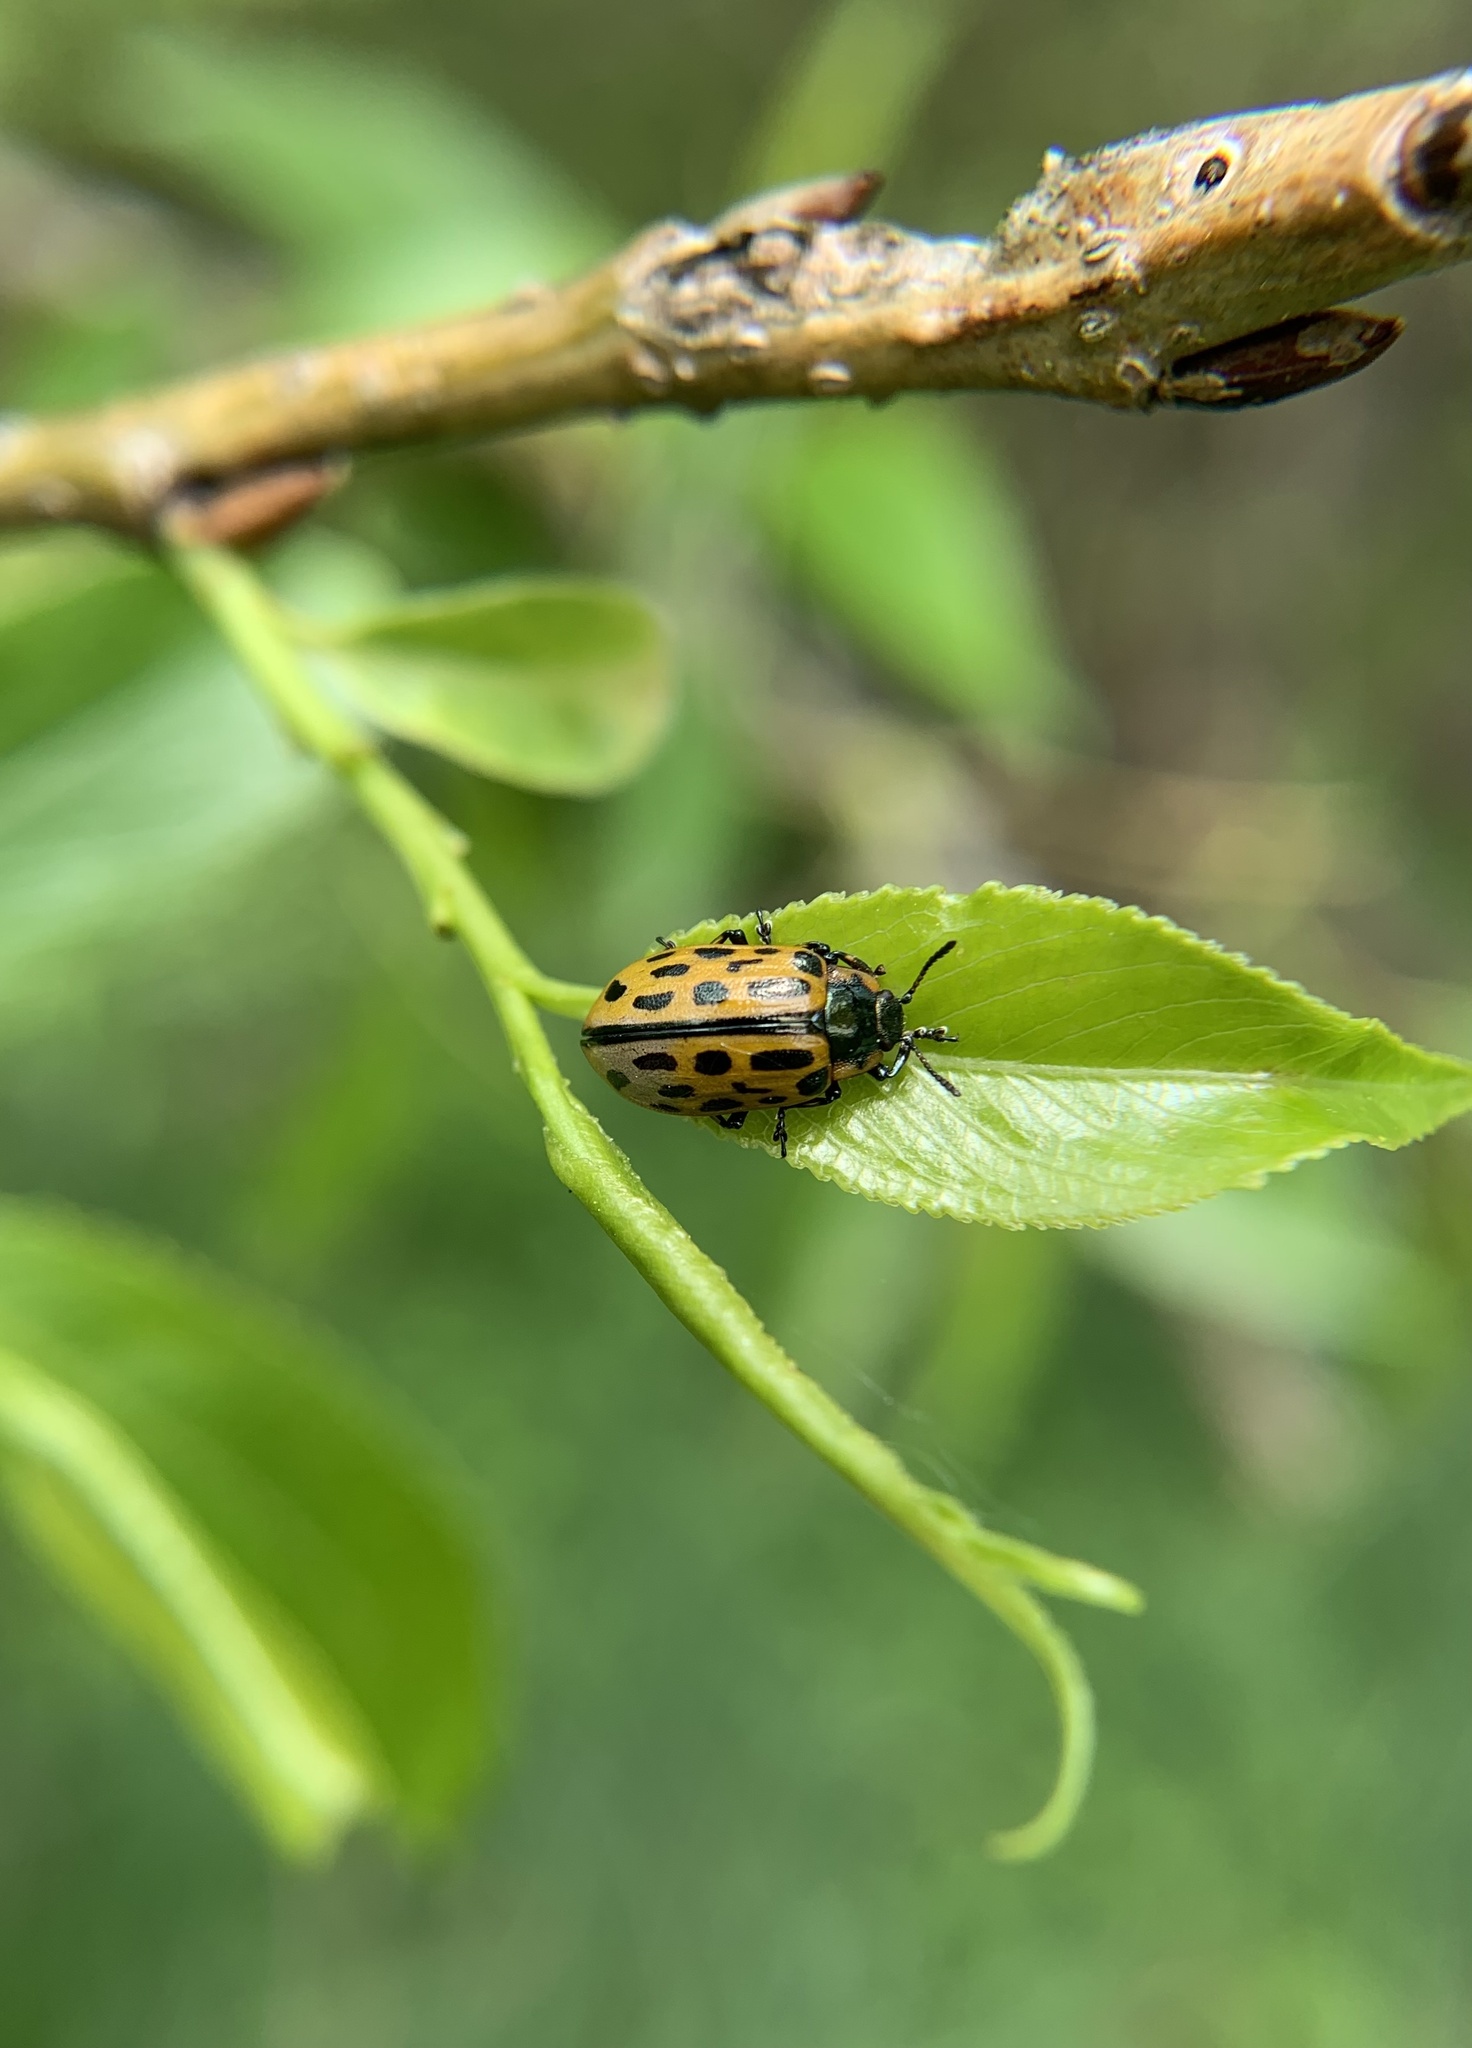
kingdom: Animalia
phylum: Arthropoda
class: Insecta
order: Coleoptera
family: Chrysomelidae
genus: Chrysomela
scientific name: Chrysomela vigintipunctata
